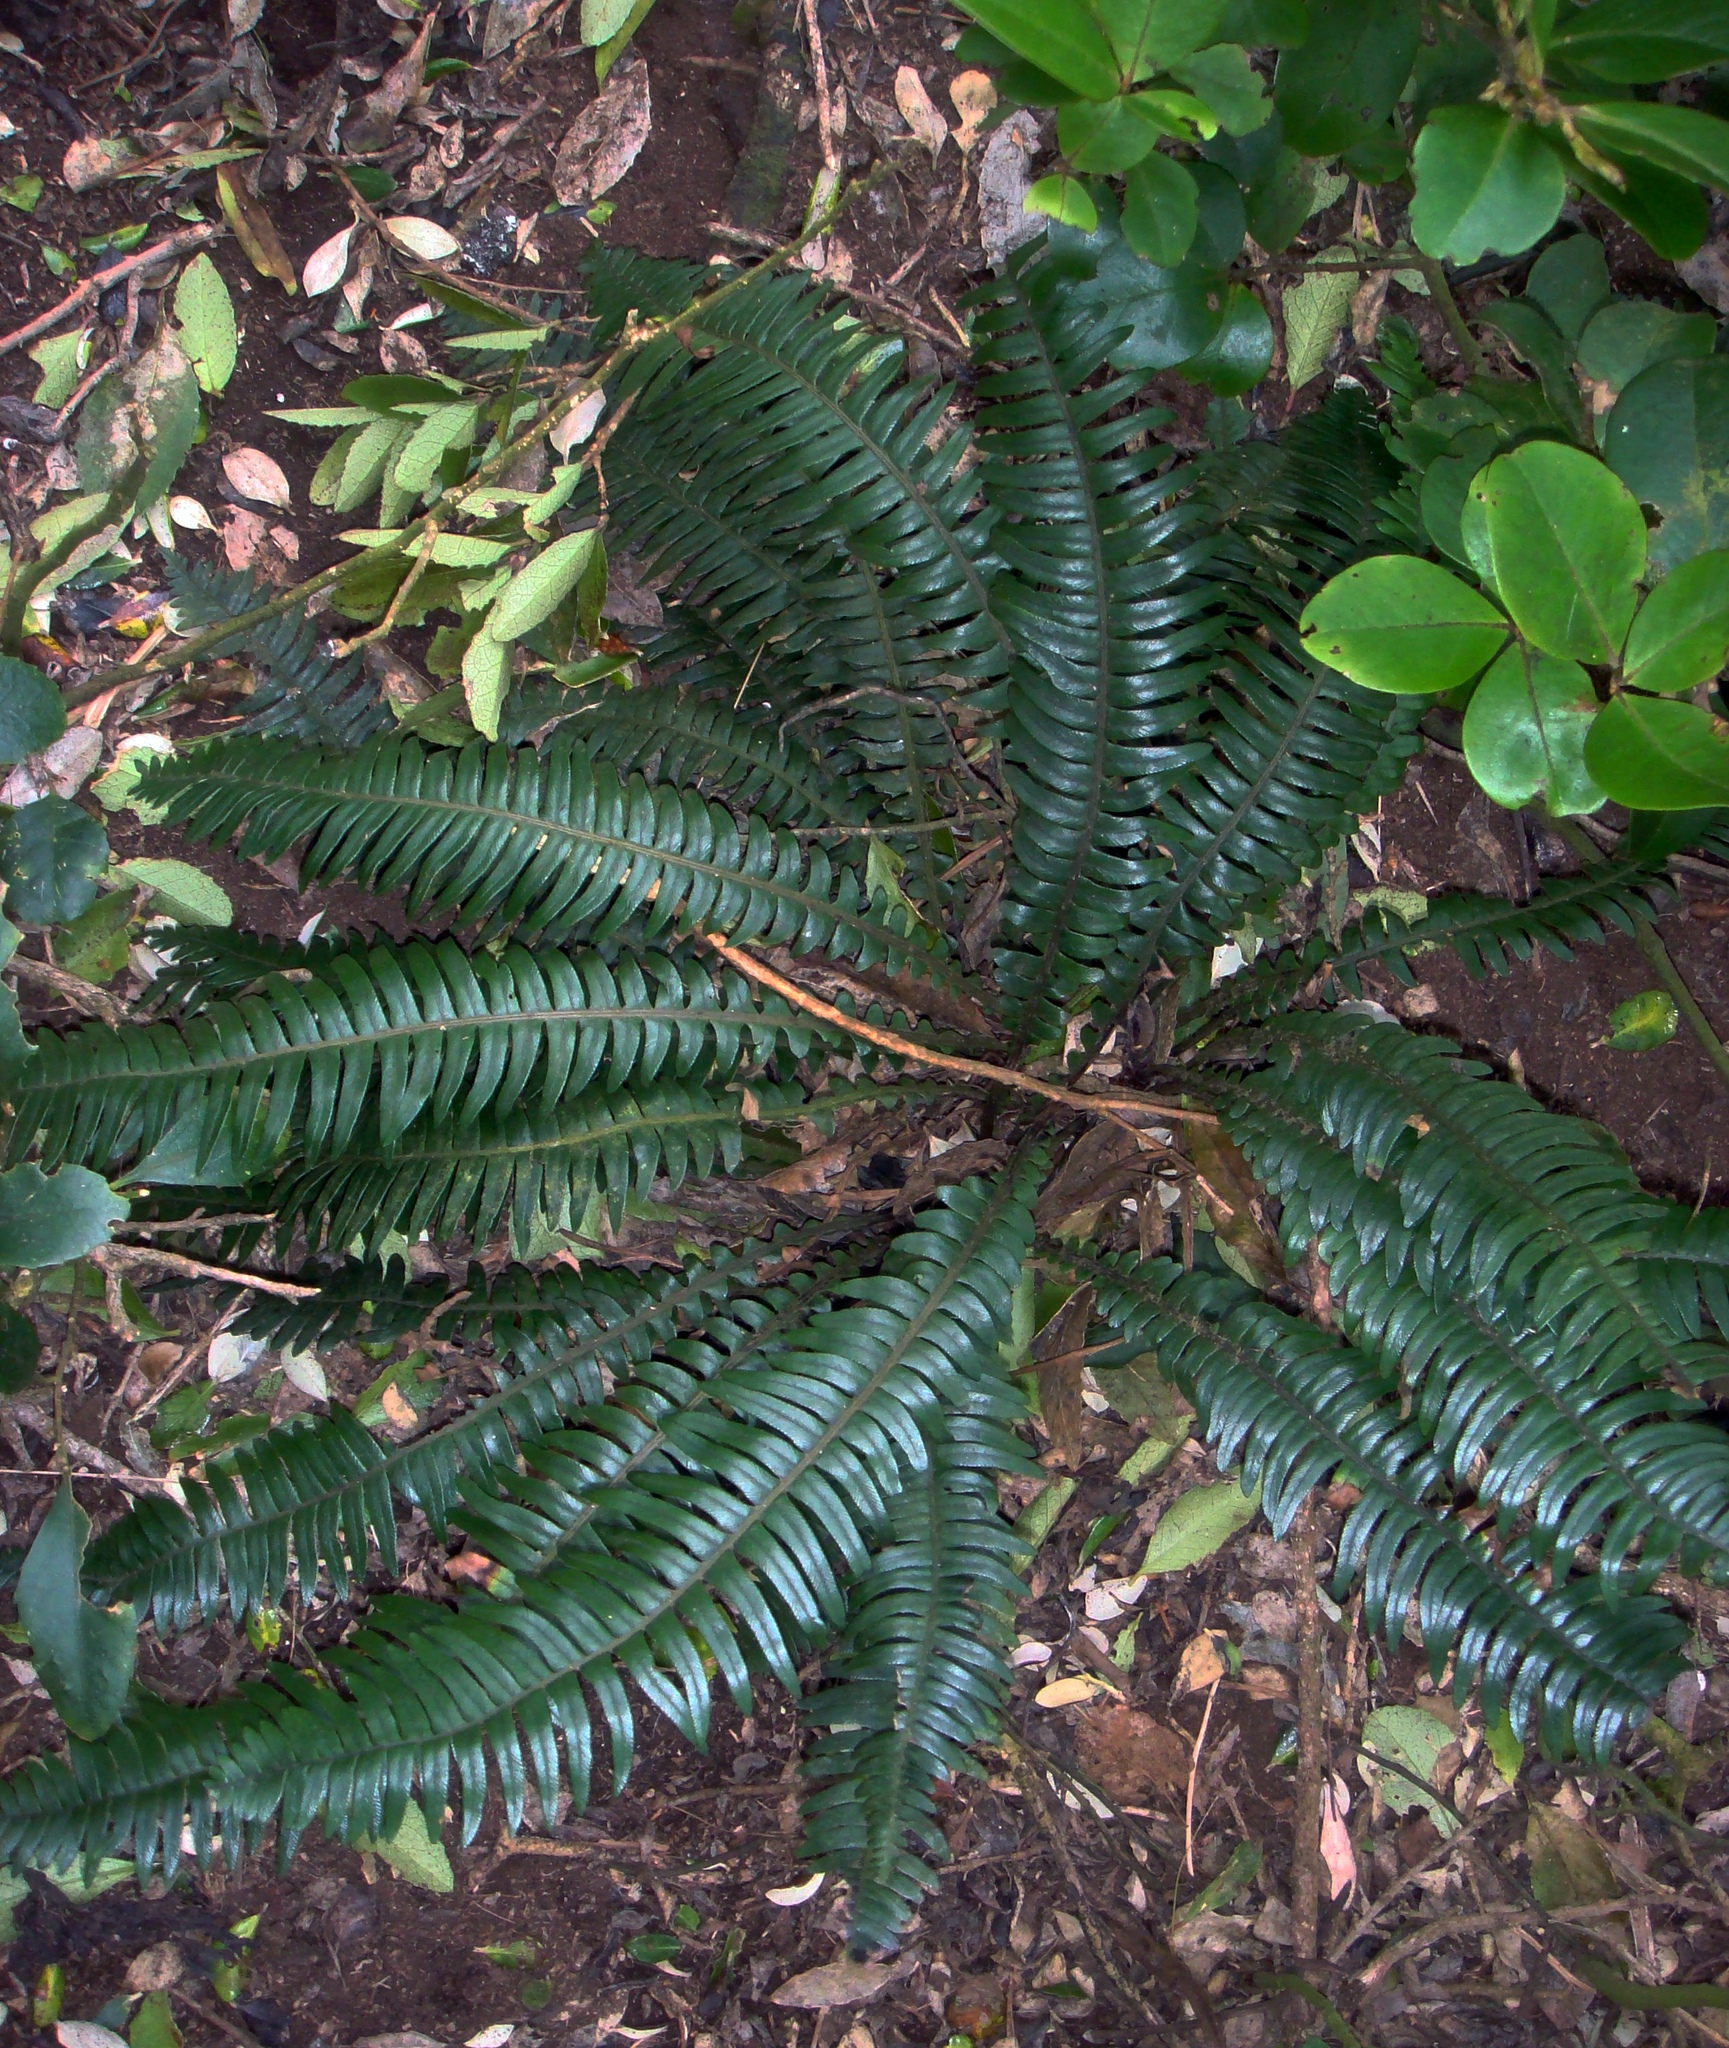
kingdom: Plantae
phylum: Tracheophyta
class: Polypodiopsida
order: Polypodiales
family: Blechnaceae
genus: Austroblechnum
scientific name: Austroblechnum durum
